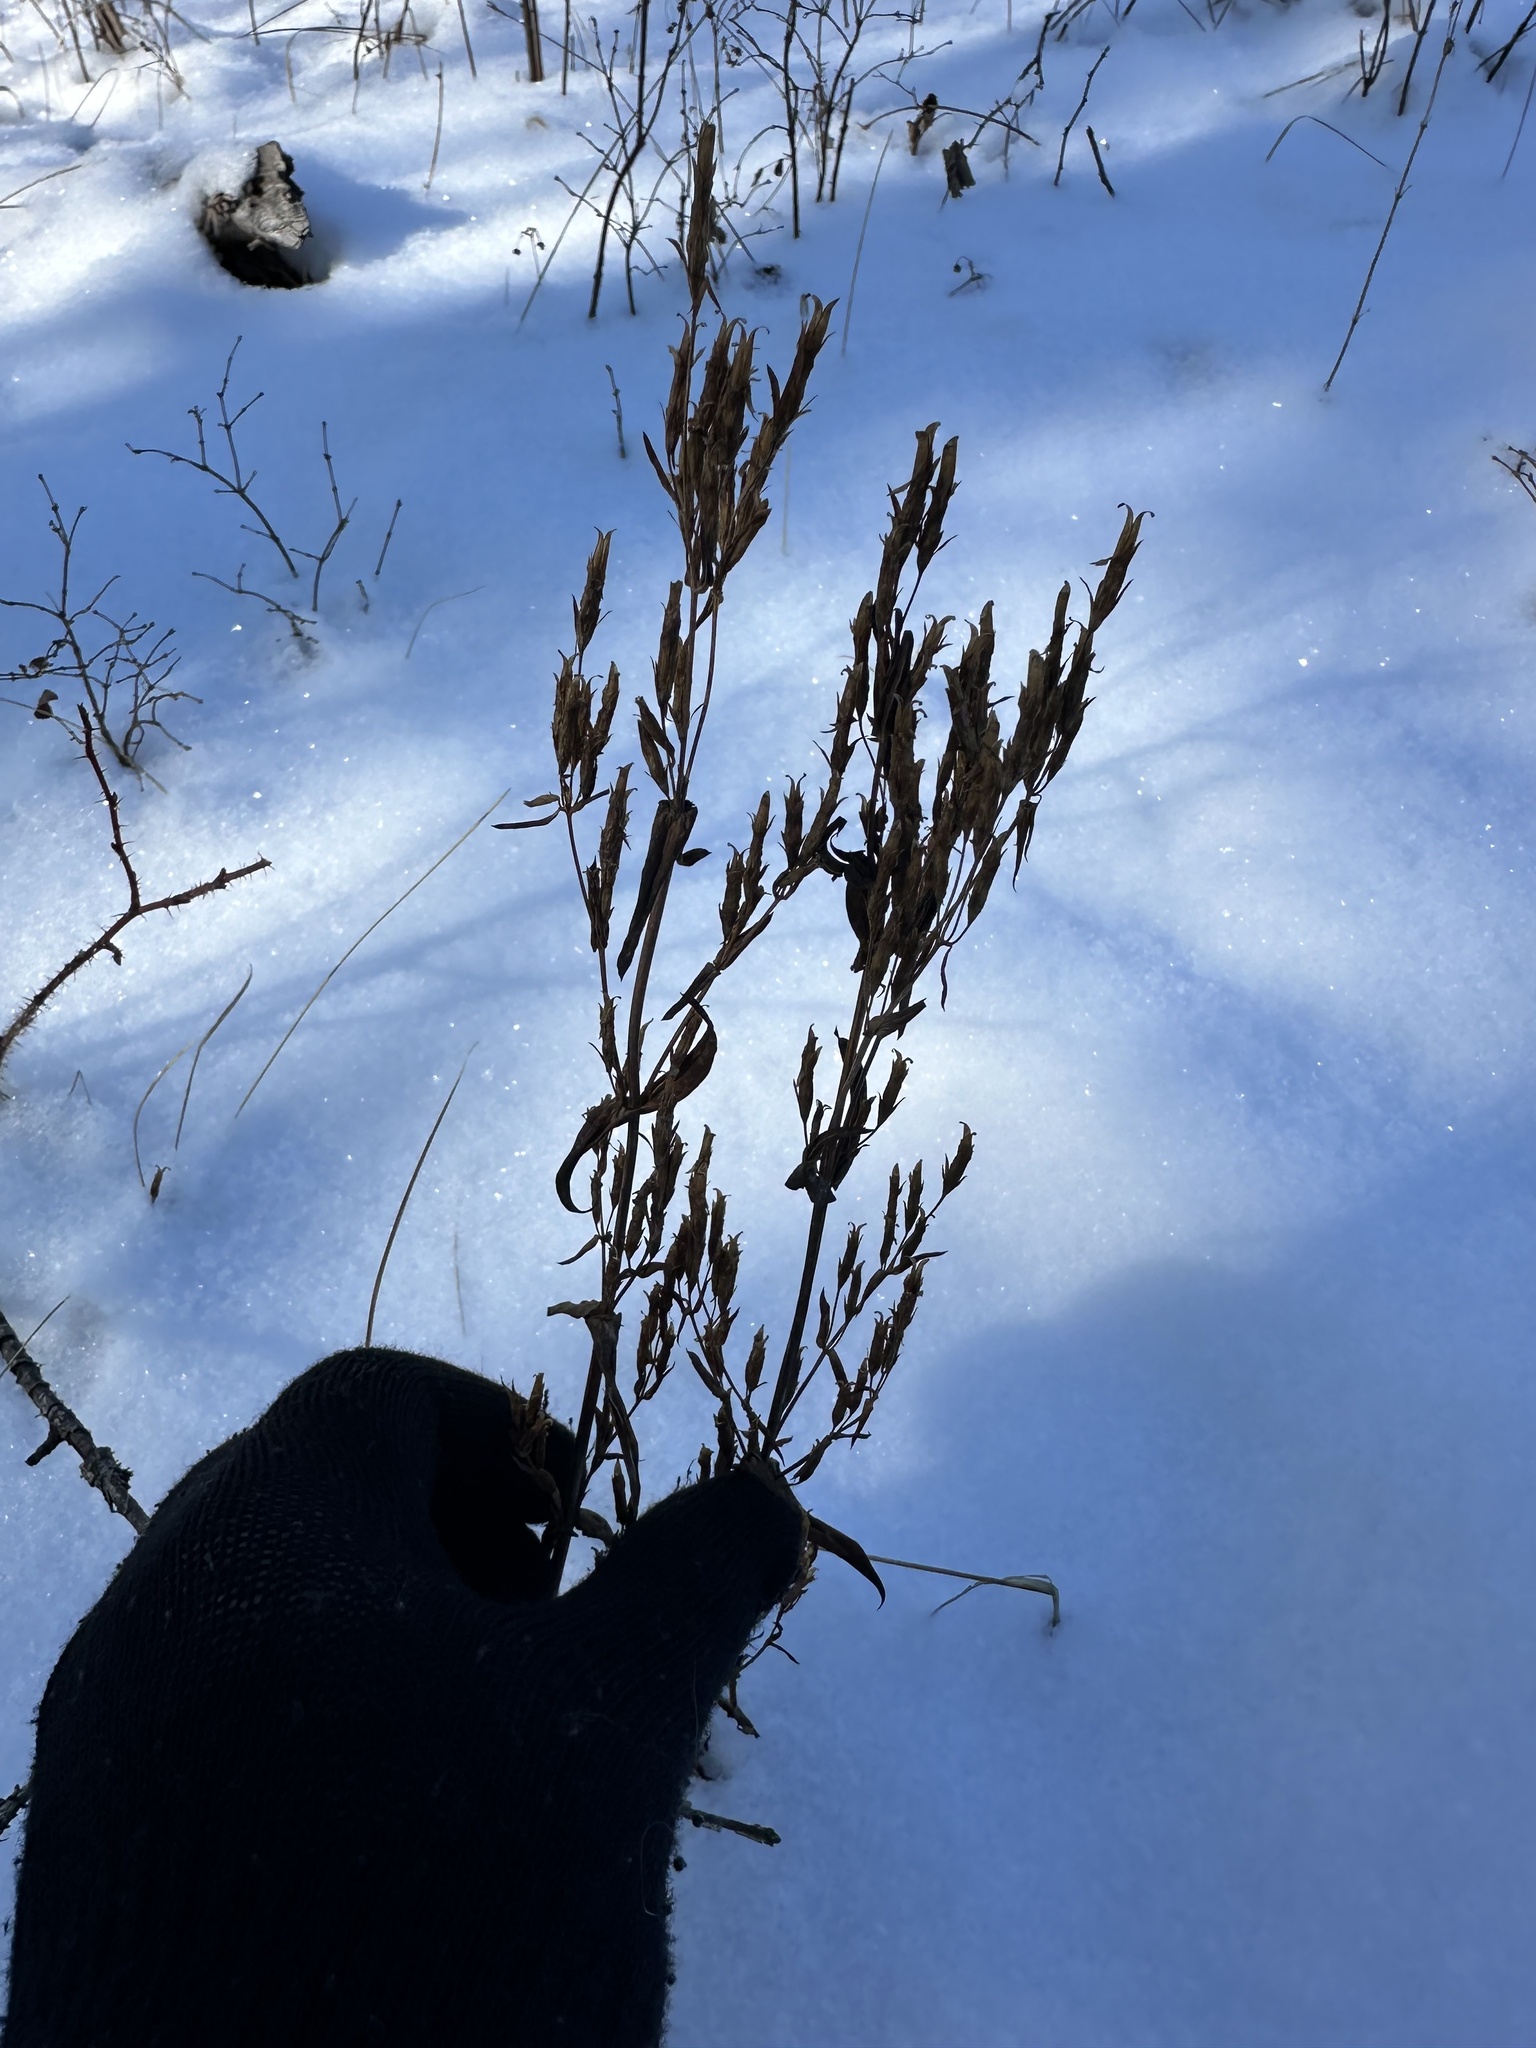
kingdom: Plantae
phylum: Tracheophyta
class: Magnoliopsida
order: Gentianales
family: Gentianaceae
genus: Gentianella
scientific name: Gentianella amarella
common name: Autumn gentian
